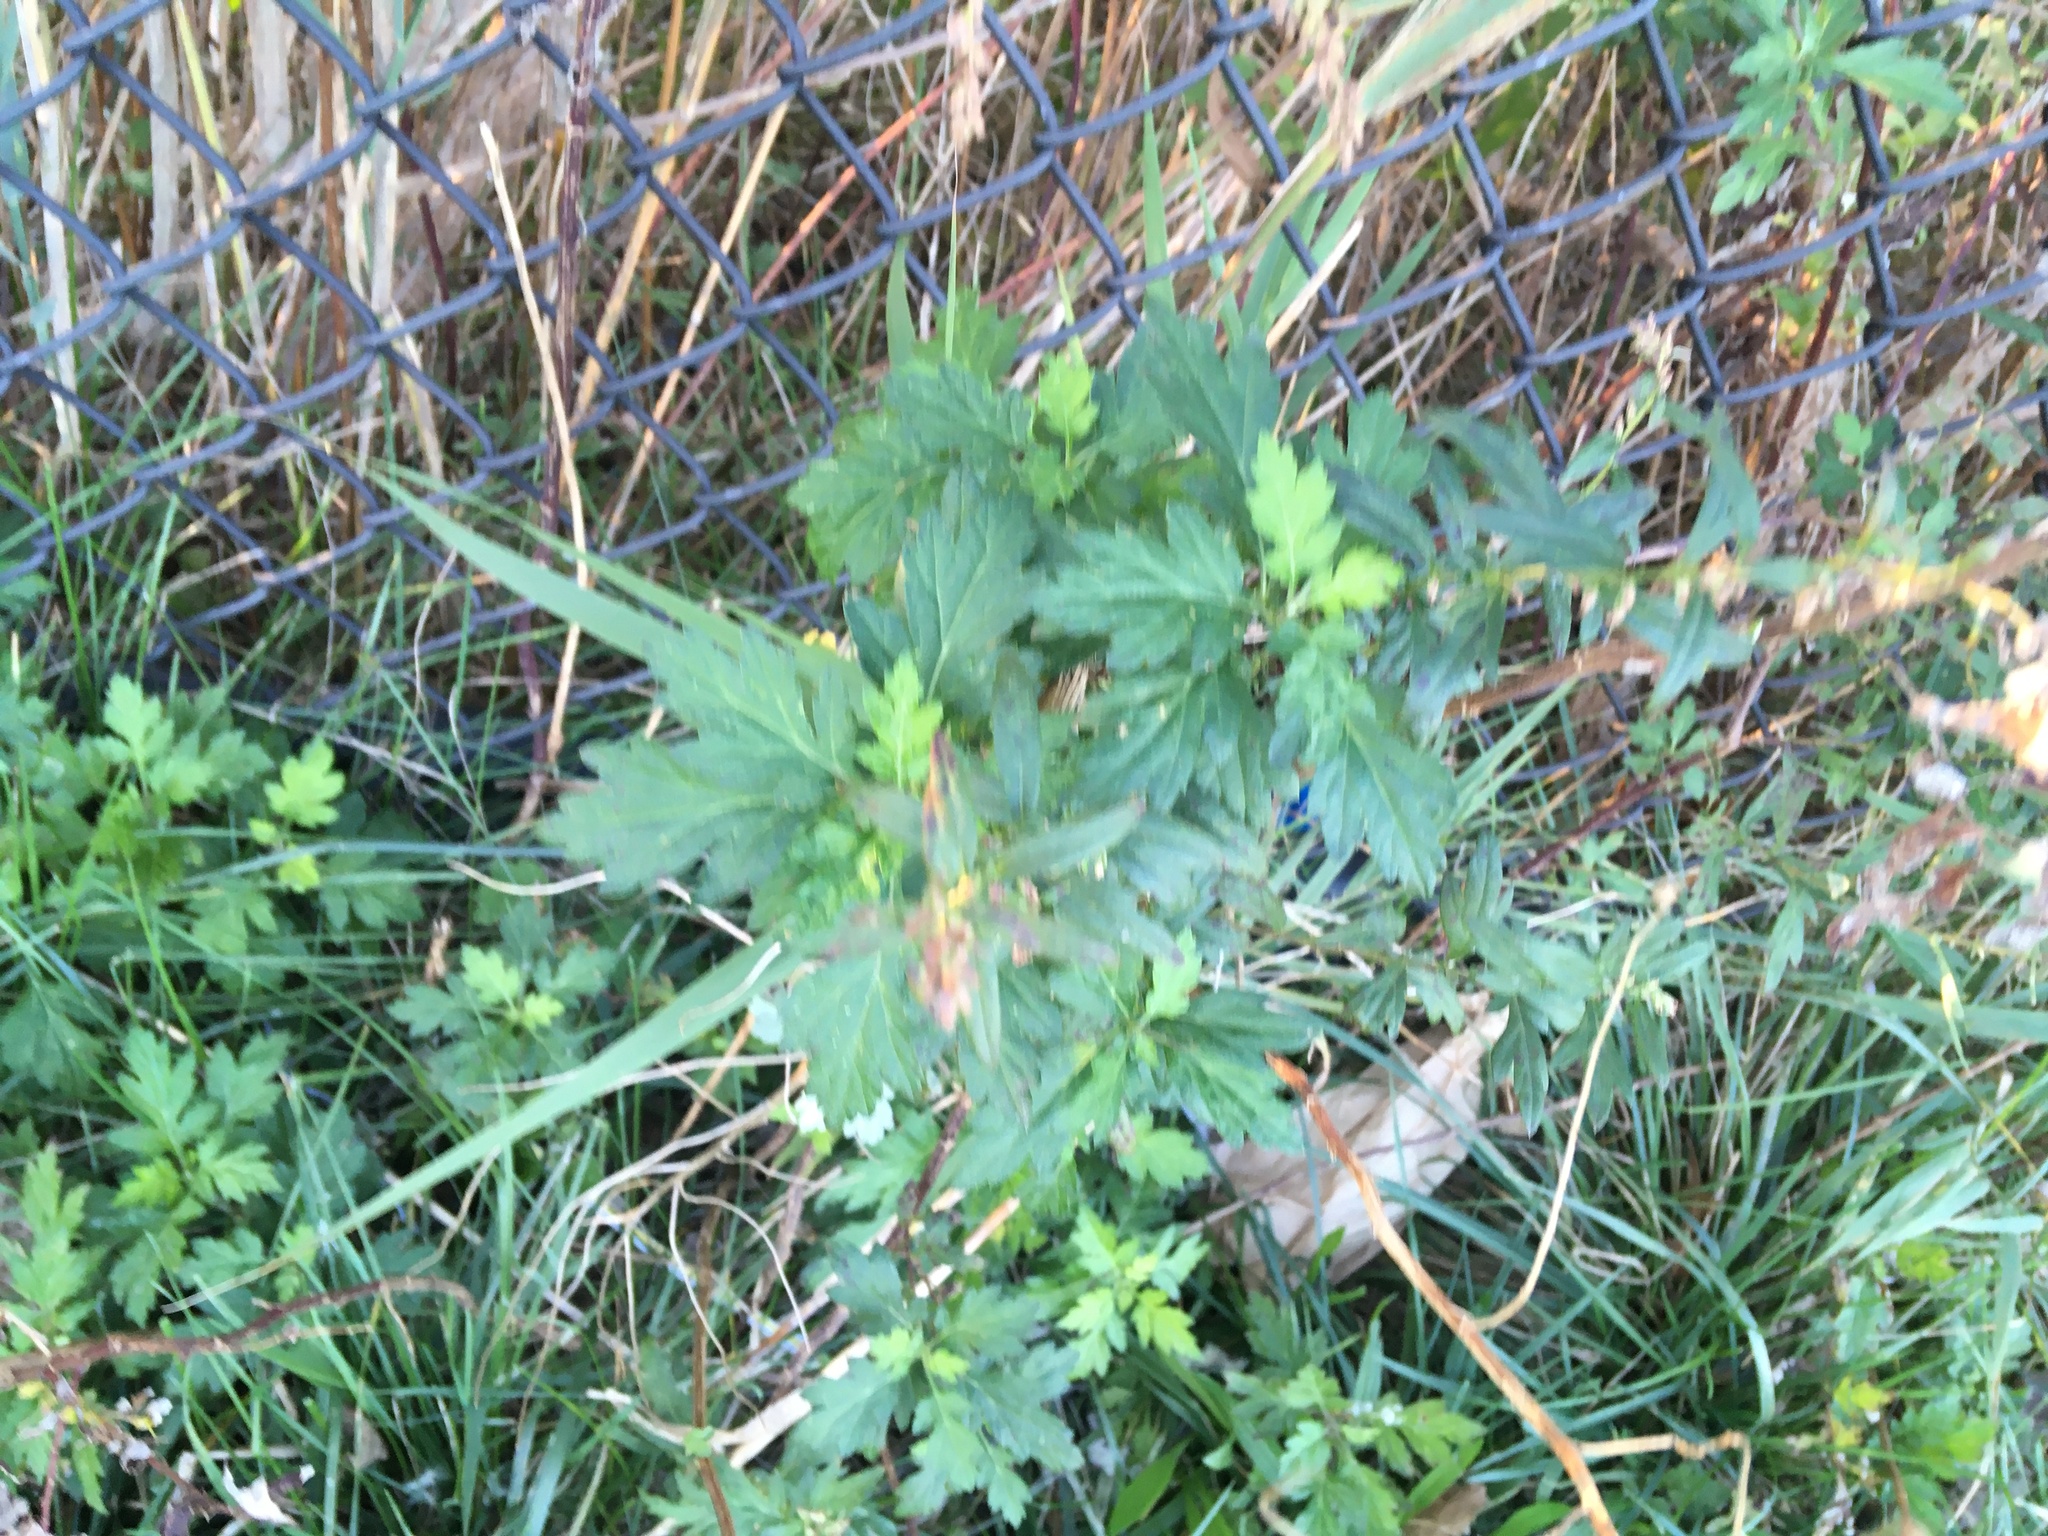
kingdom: Plantae
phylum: Tracheophyta
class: Magnoliopsida
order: Asterales
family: Asteraceae
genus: Artemisia
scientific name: Artemisia vulgaris
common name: Mugwort
